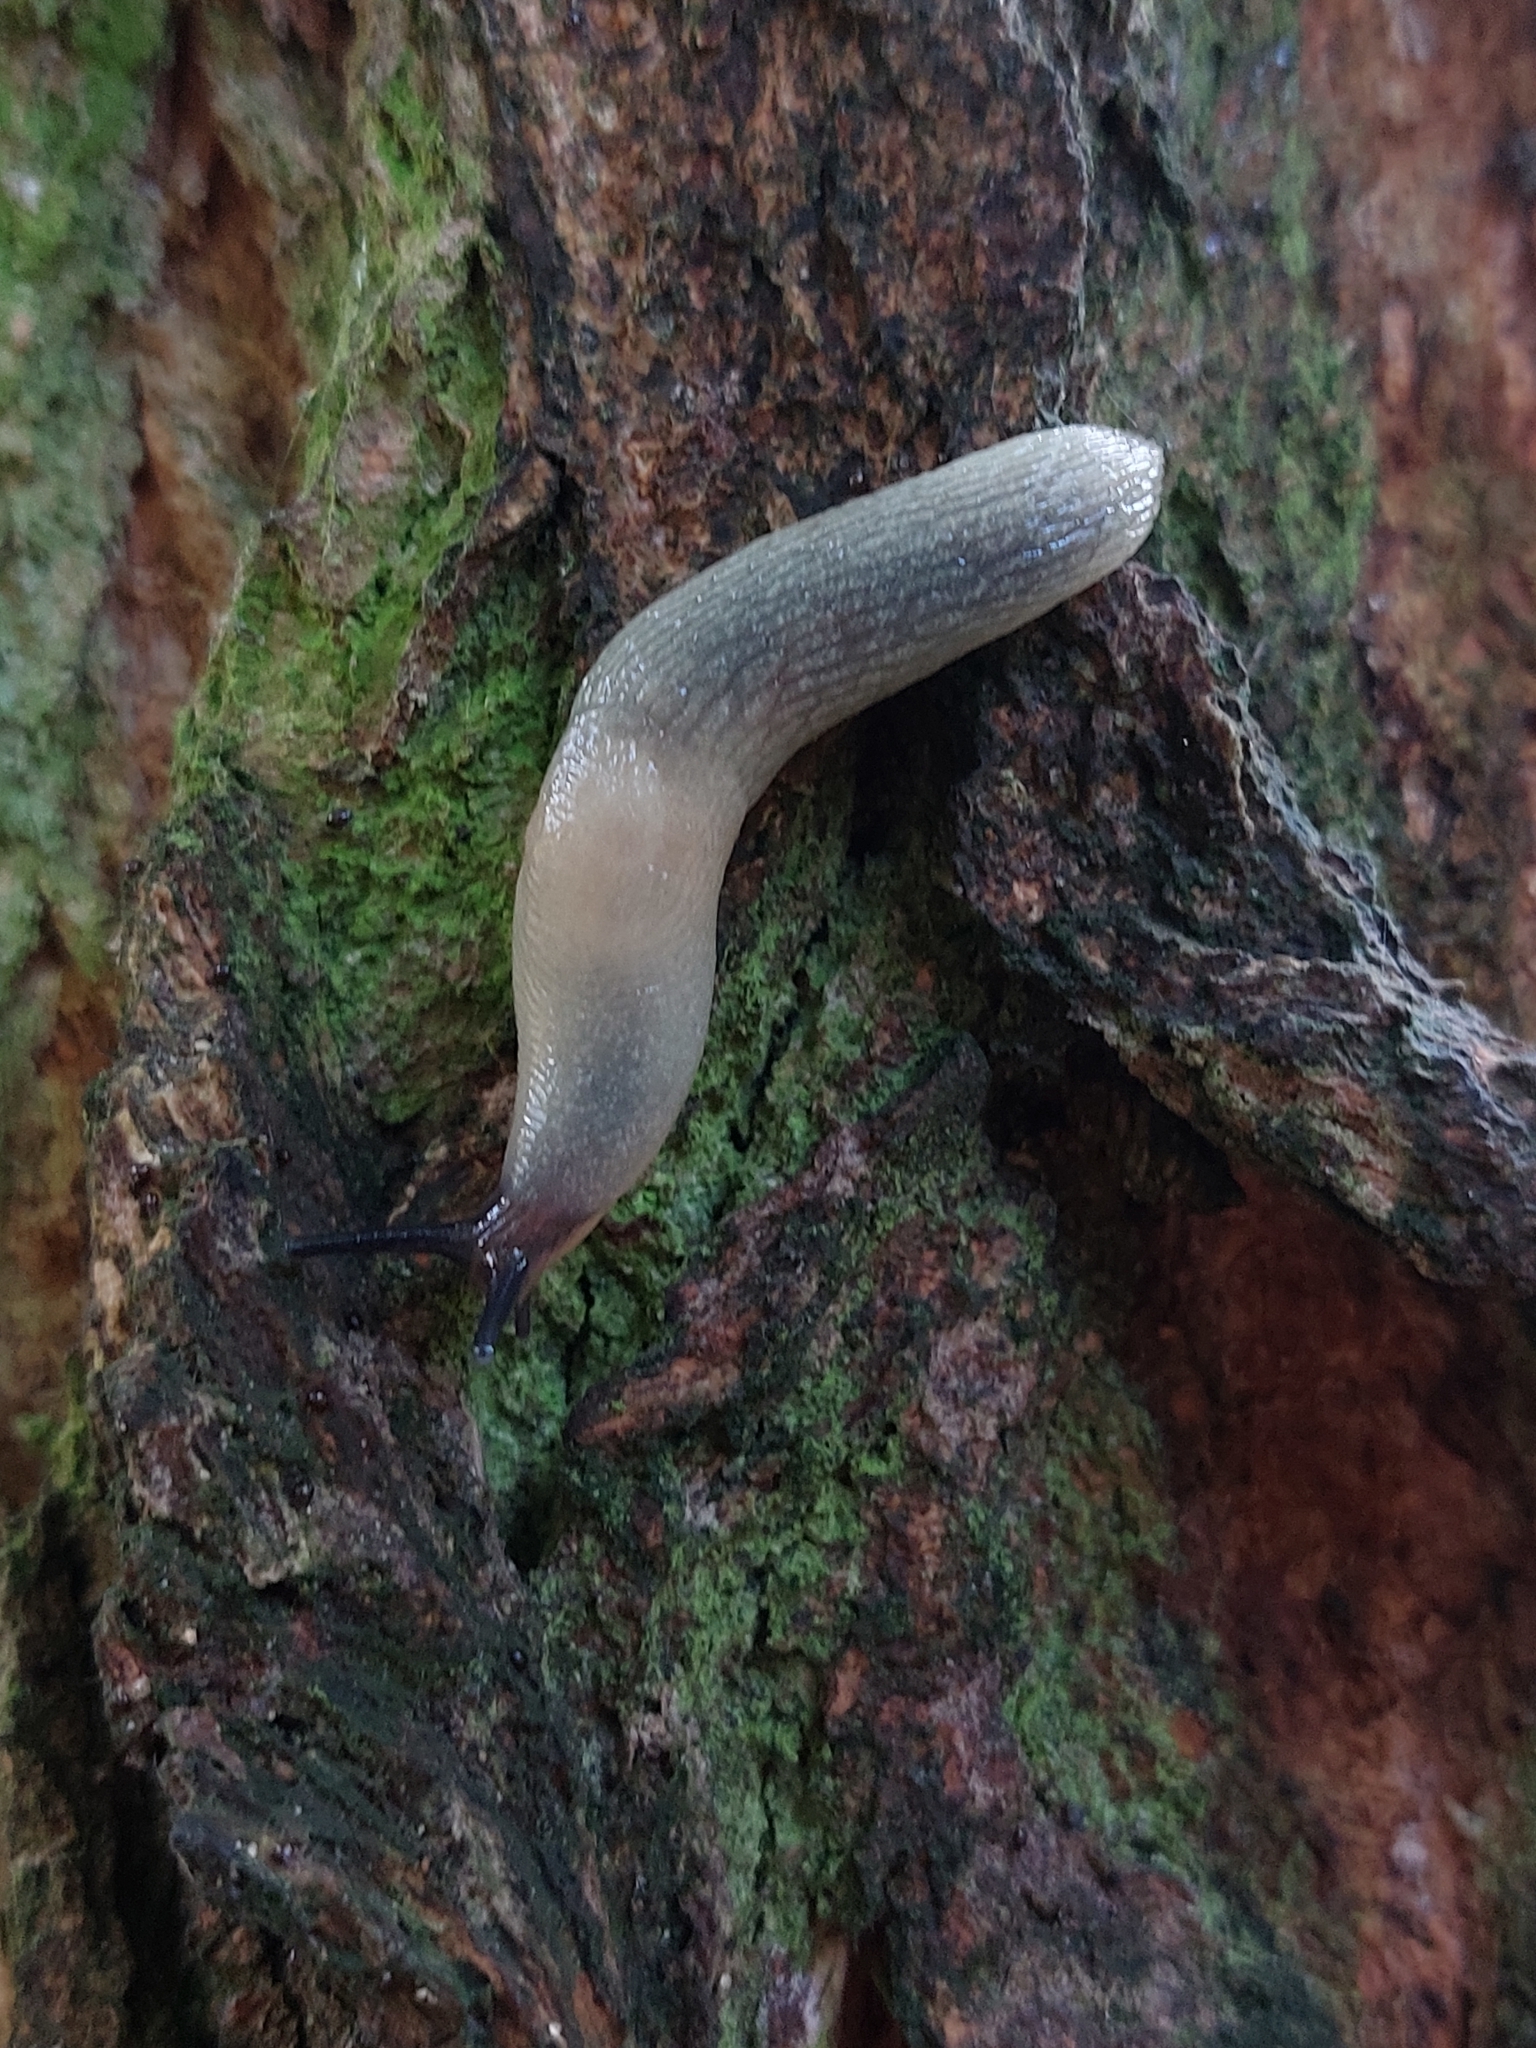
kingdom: Animalia
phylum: Mollusca
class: Gastropoda
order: Stylommatophora
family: Agriolimacidae
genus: Krynickillus
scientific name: Krynickillus melanocephalus
